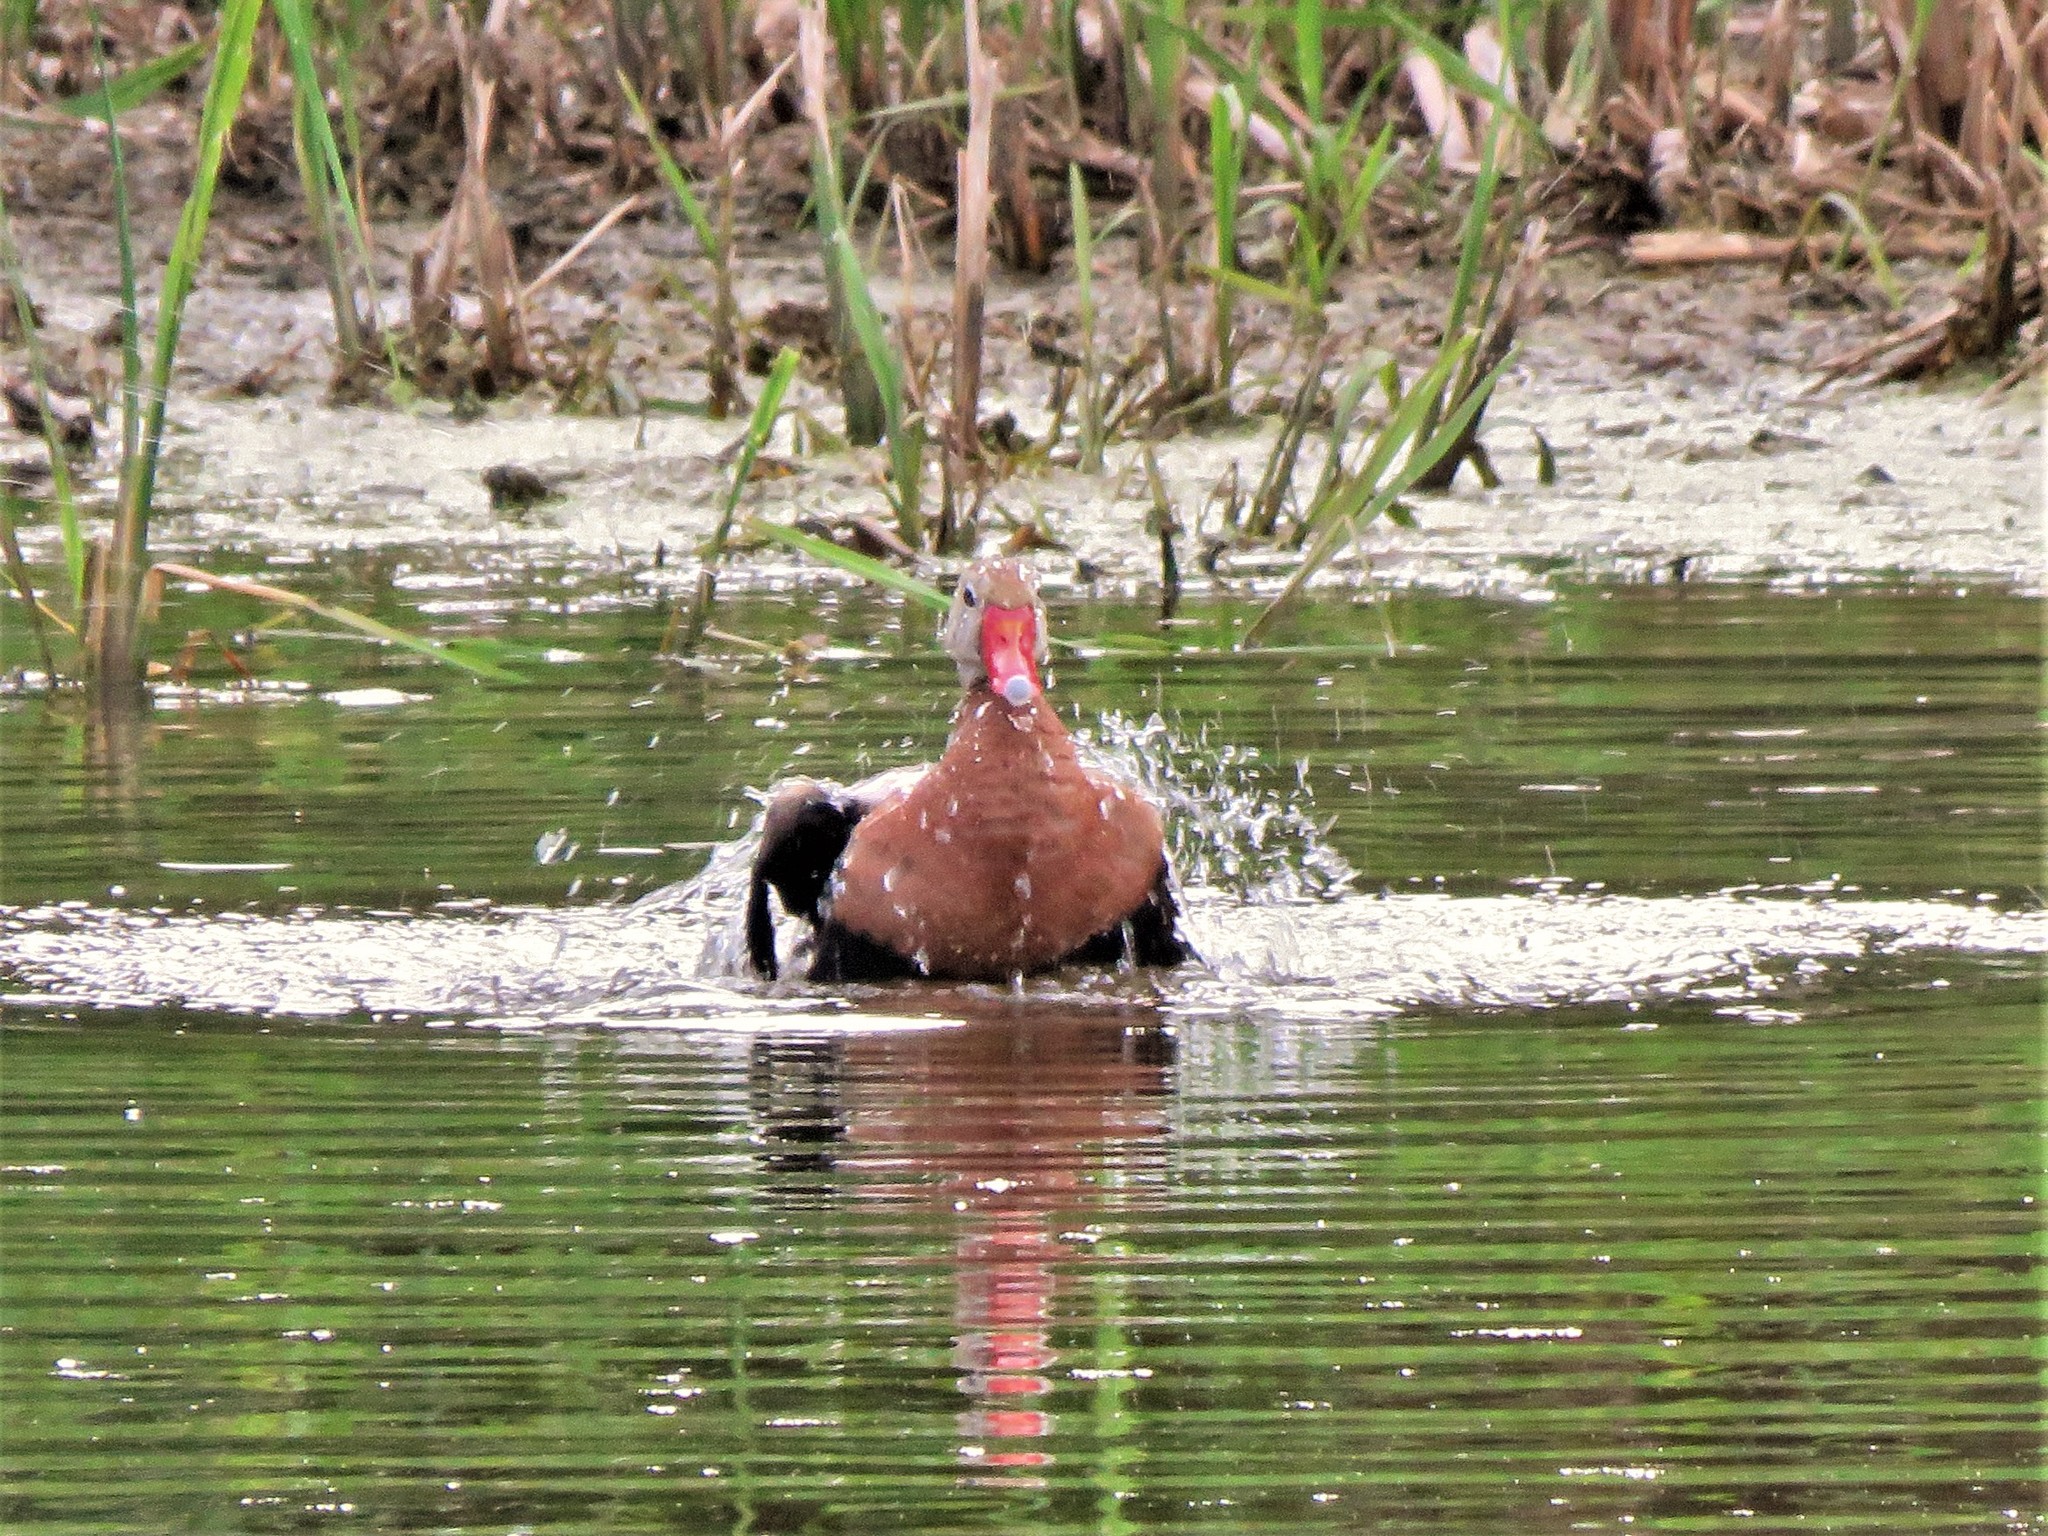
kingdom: Animalia
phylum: Chordata
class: Aves
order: Anseriformes
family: Anatidae
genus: Dendrocygna
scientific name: Dendrocygna autumnalis
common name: Black-bellied whistling duck
